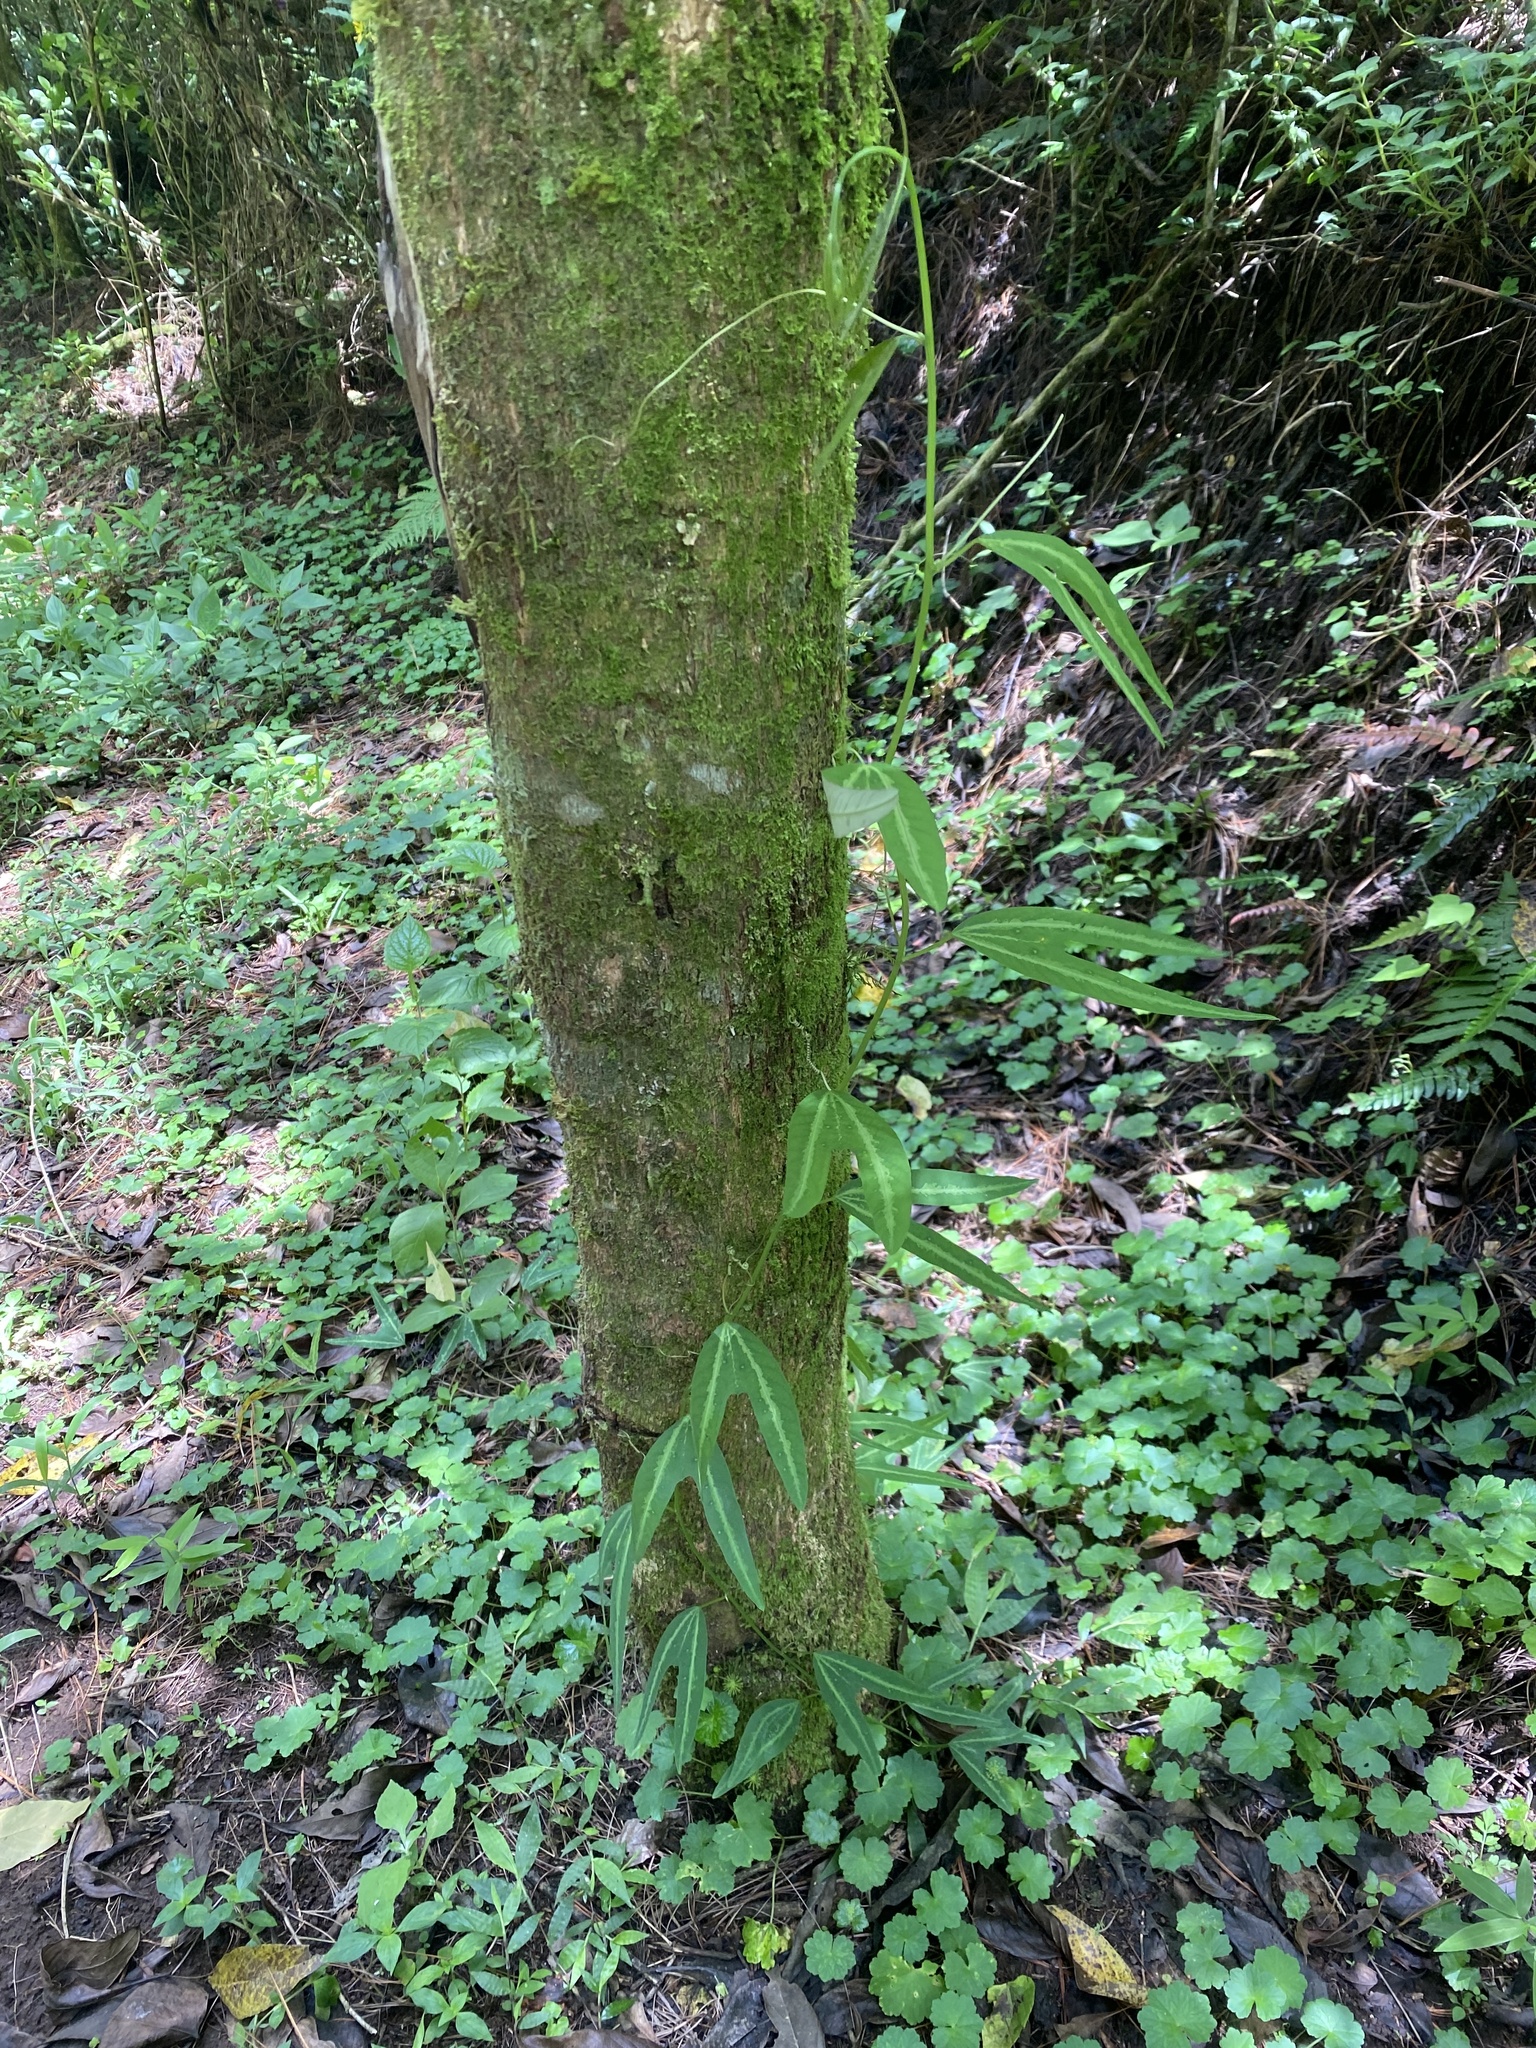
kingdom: Plantae
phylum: Tracheophyta
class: Magnoliopsida
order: Malpighiales
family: Passifloraceae
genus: Passiflora
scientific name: Passiflora ilamo
